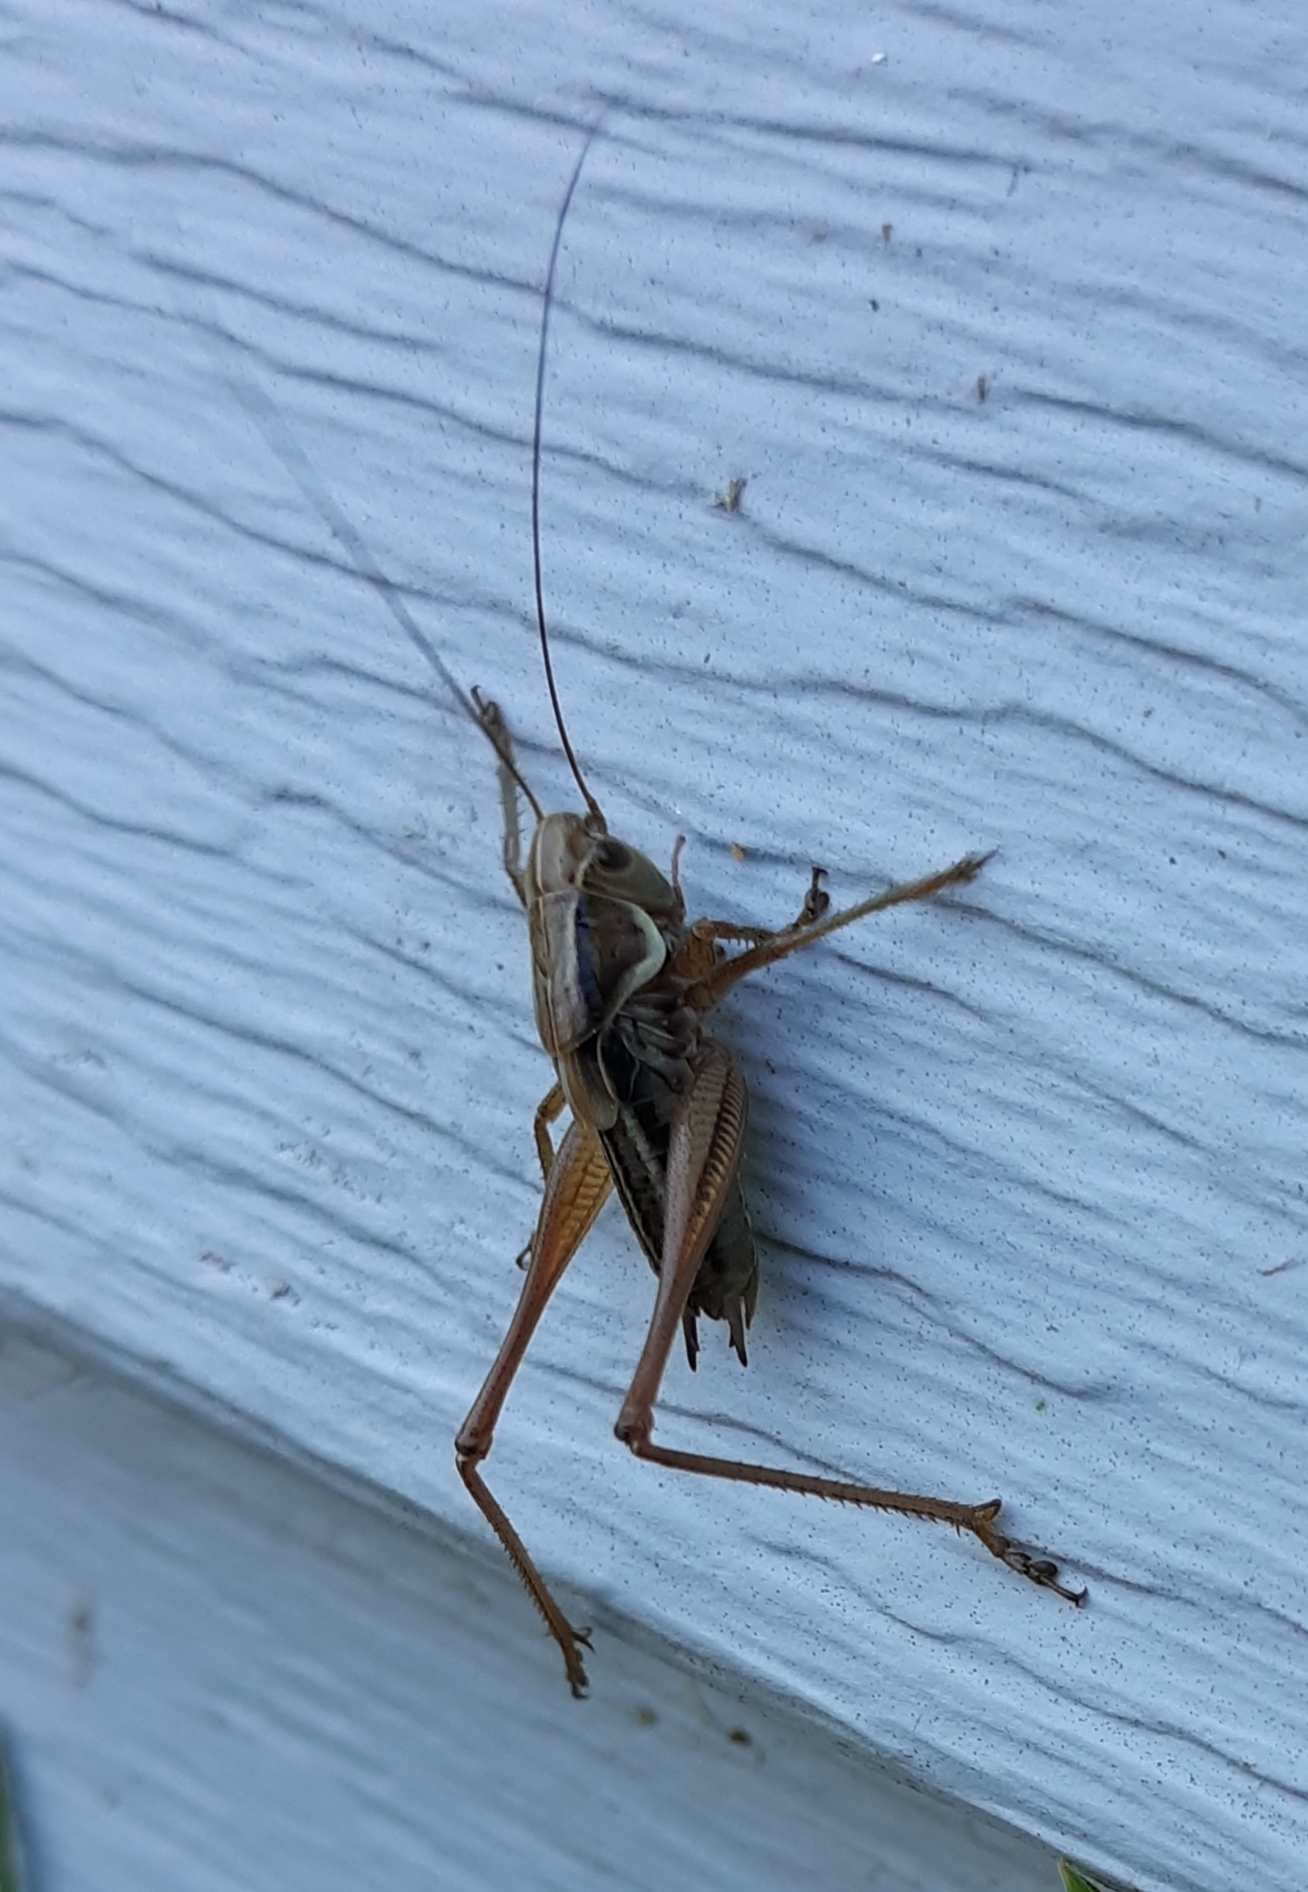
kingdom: Animalia
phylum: Arthropoda
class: Insecta
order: Orthoptera
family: Tettigoniidae
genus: Roeseliana
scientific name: Roeseliana roeselii
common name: Roesel's bush cricket
